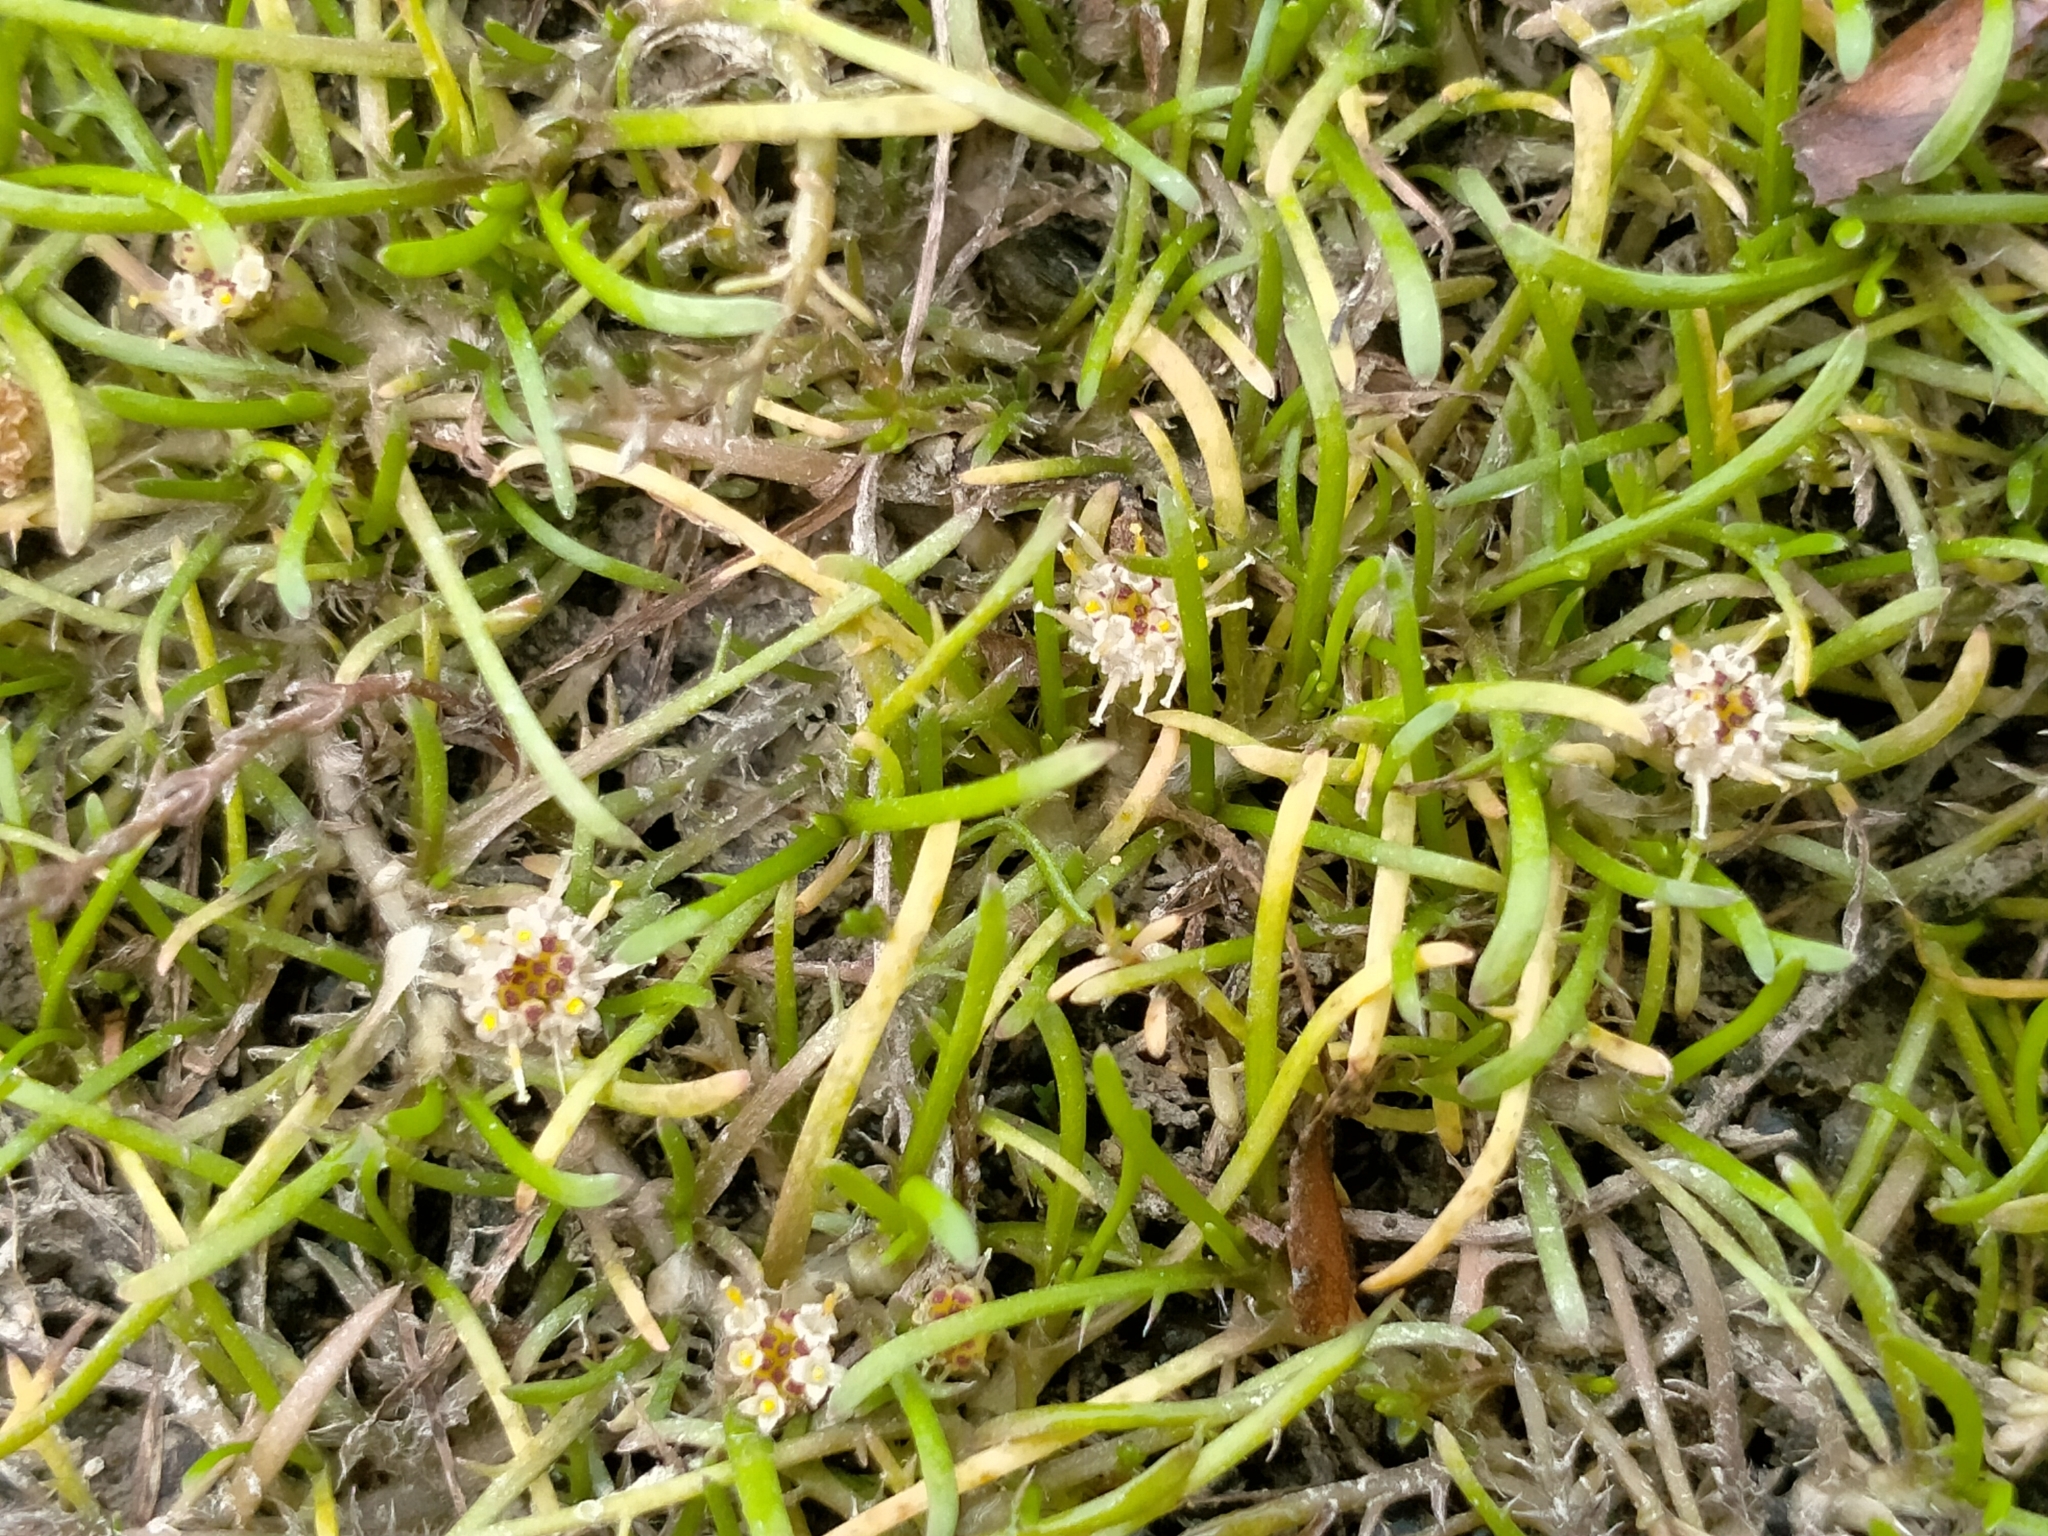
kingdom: Plantae
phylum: Tracheophyta
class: Magnoliopsida
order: Asterales
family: Asteraceae
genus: Leptinella
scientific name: Leptinella maniototo
